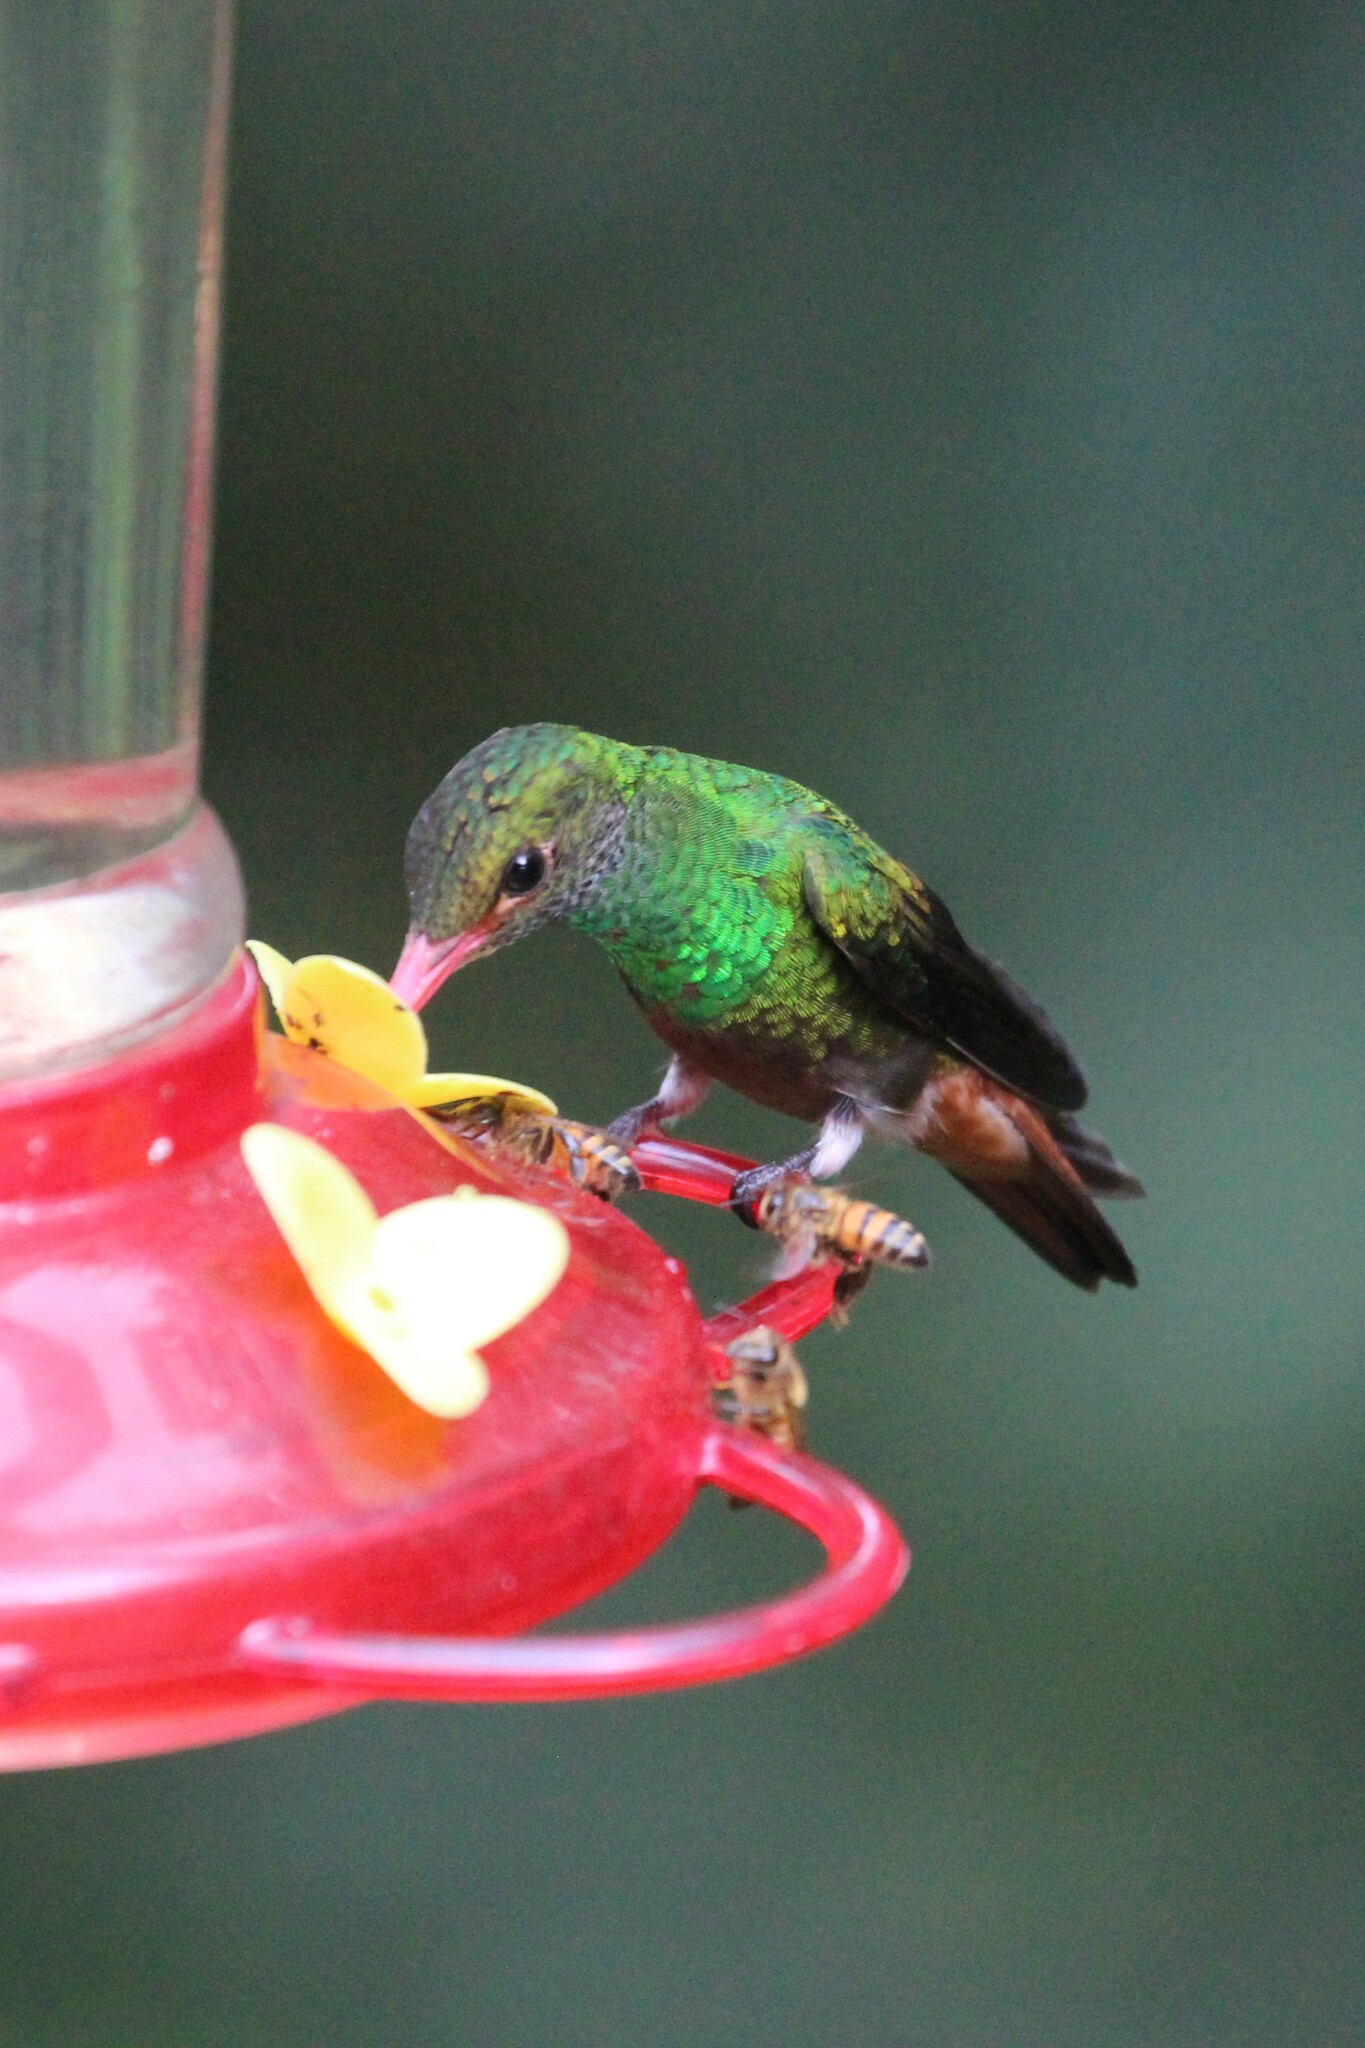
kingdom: Animalia
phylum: Chordata
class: Aves
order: Apodiformes
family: Trochilidae
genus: Amazilia
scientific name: Amazilia tzacatl
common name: Rufous-tailed hummingbird
